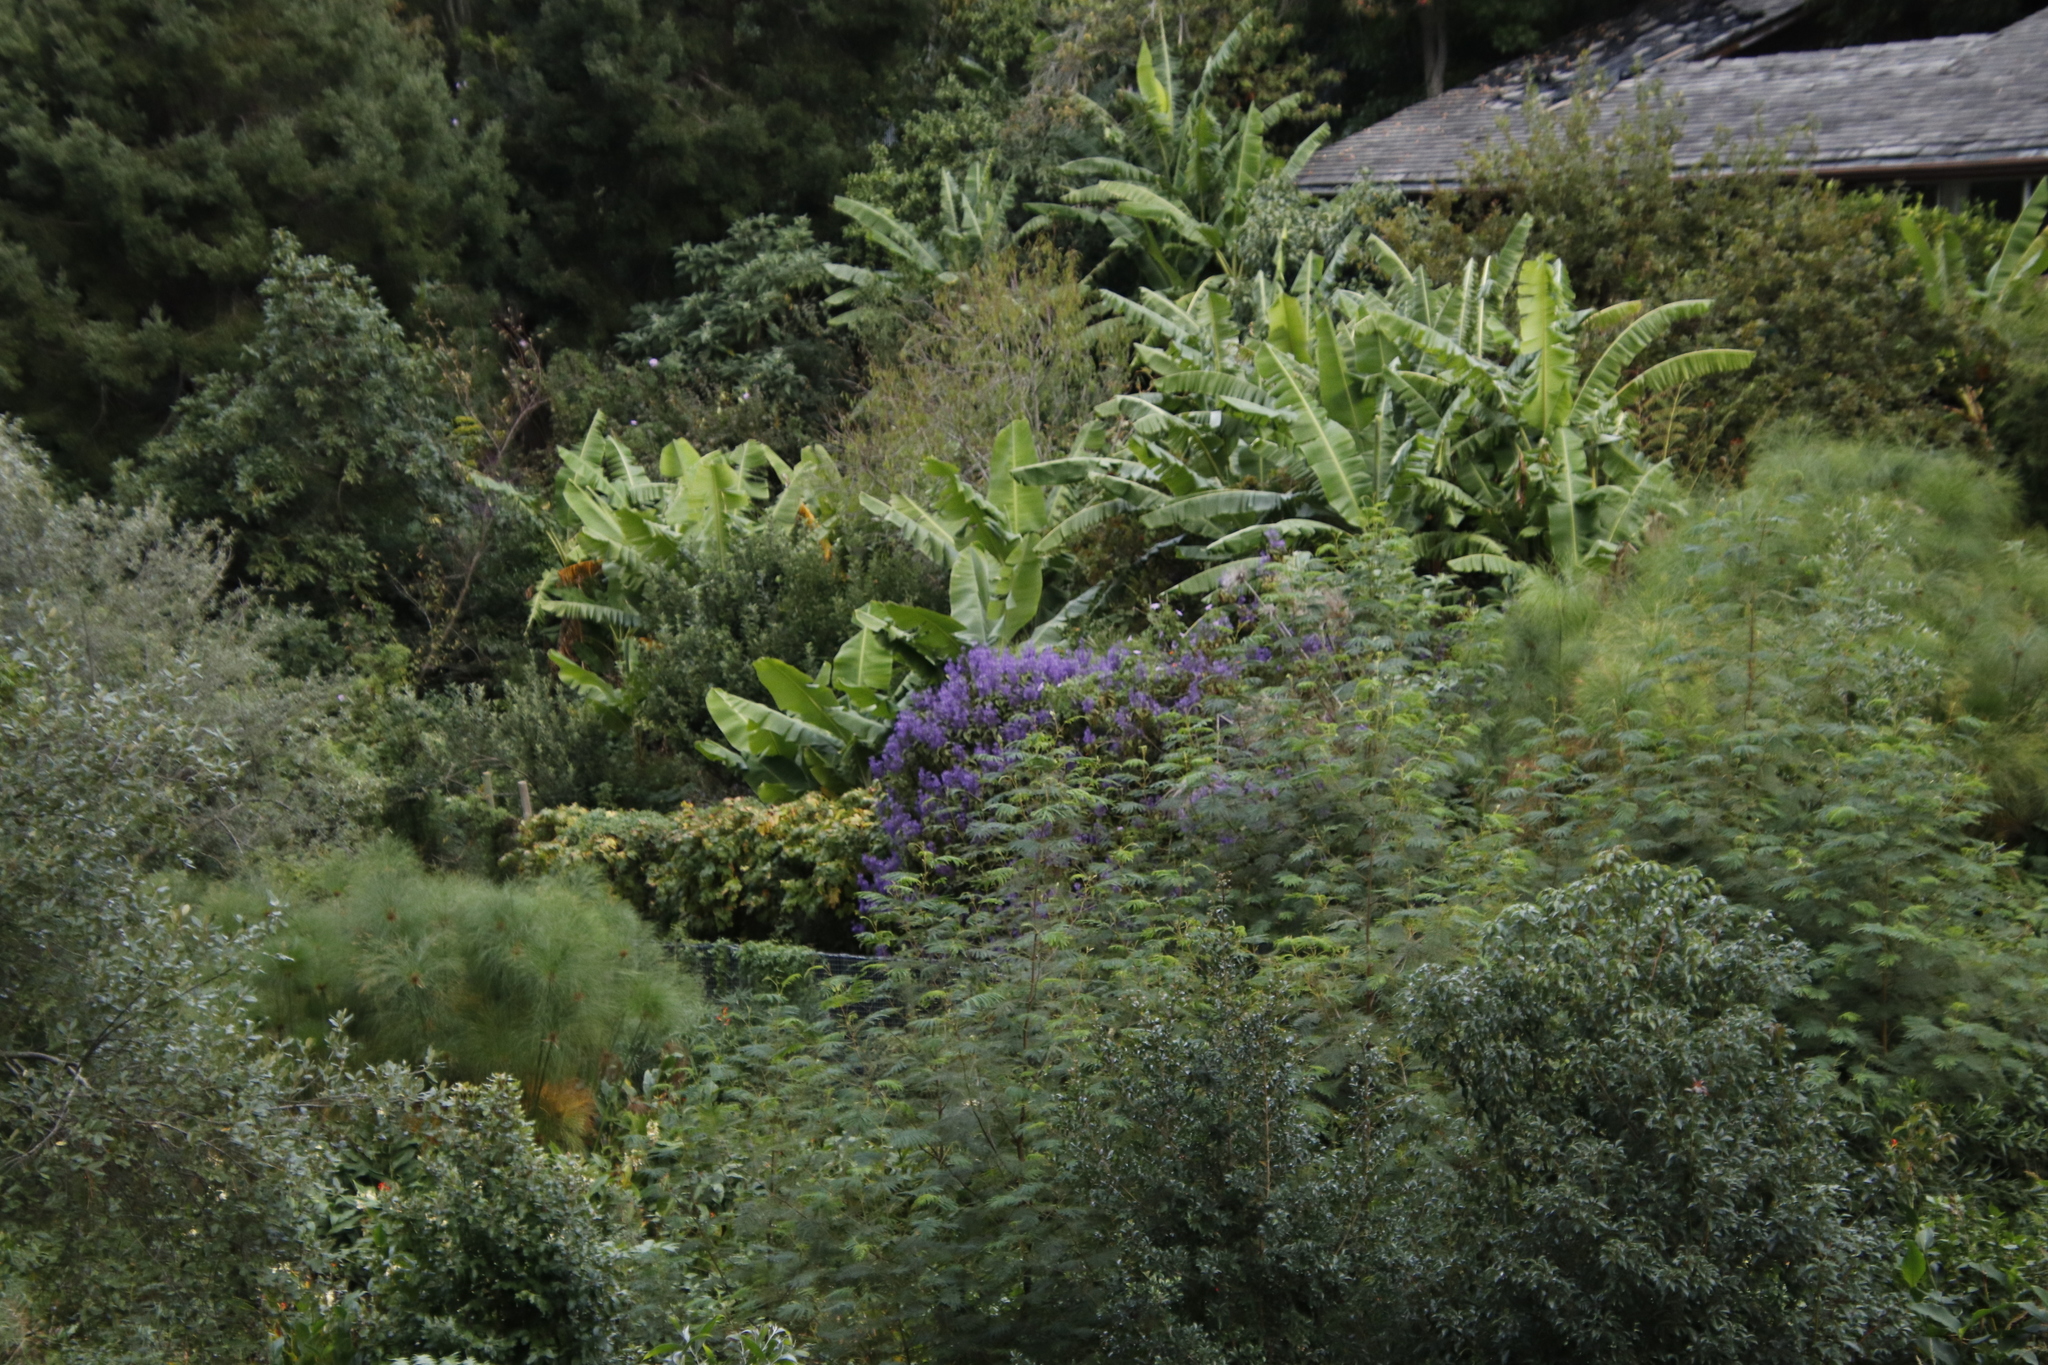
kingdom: Plantae
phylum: Tracheophyta
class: Liliopsida
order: Zingiberales
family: Zingiberaceae
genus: Hedychium
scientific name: Hedychium flavescens
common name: Yellow ginger
